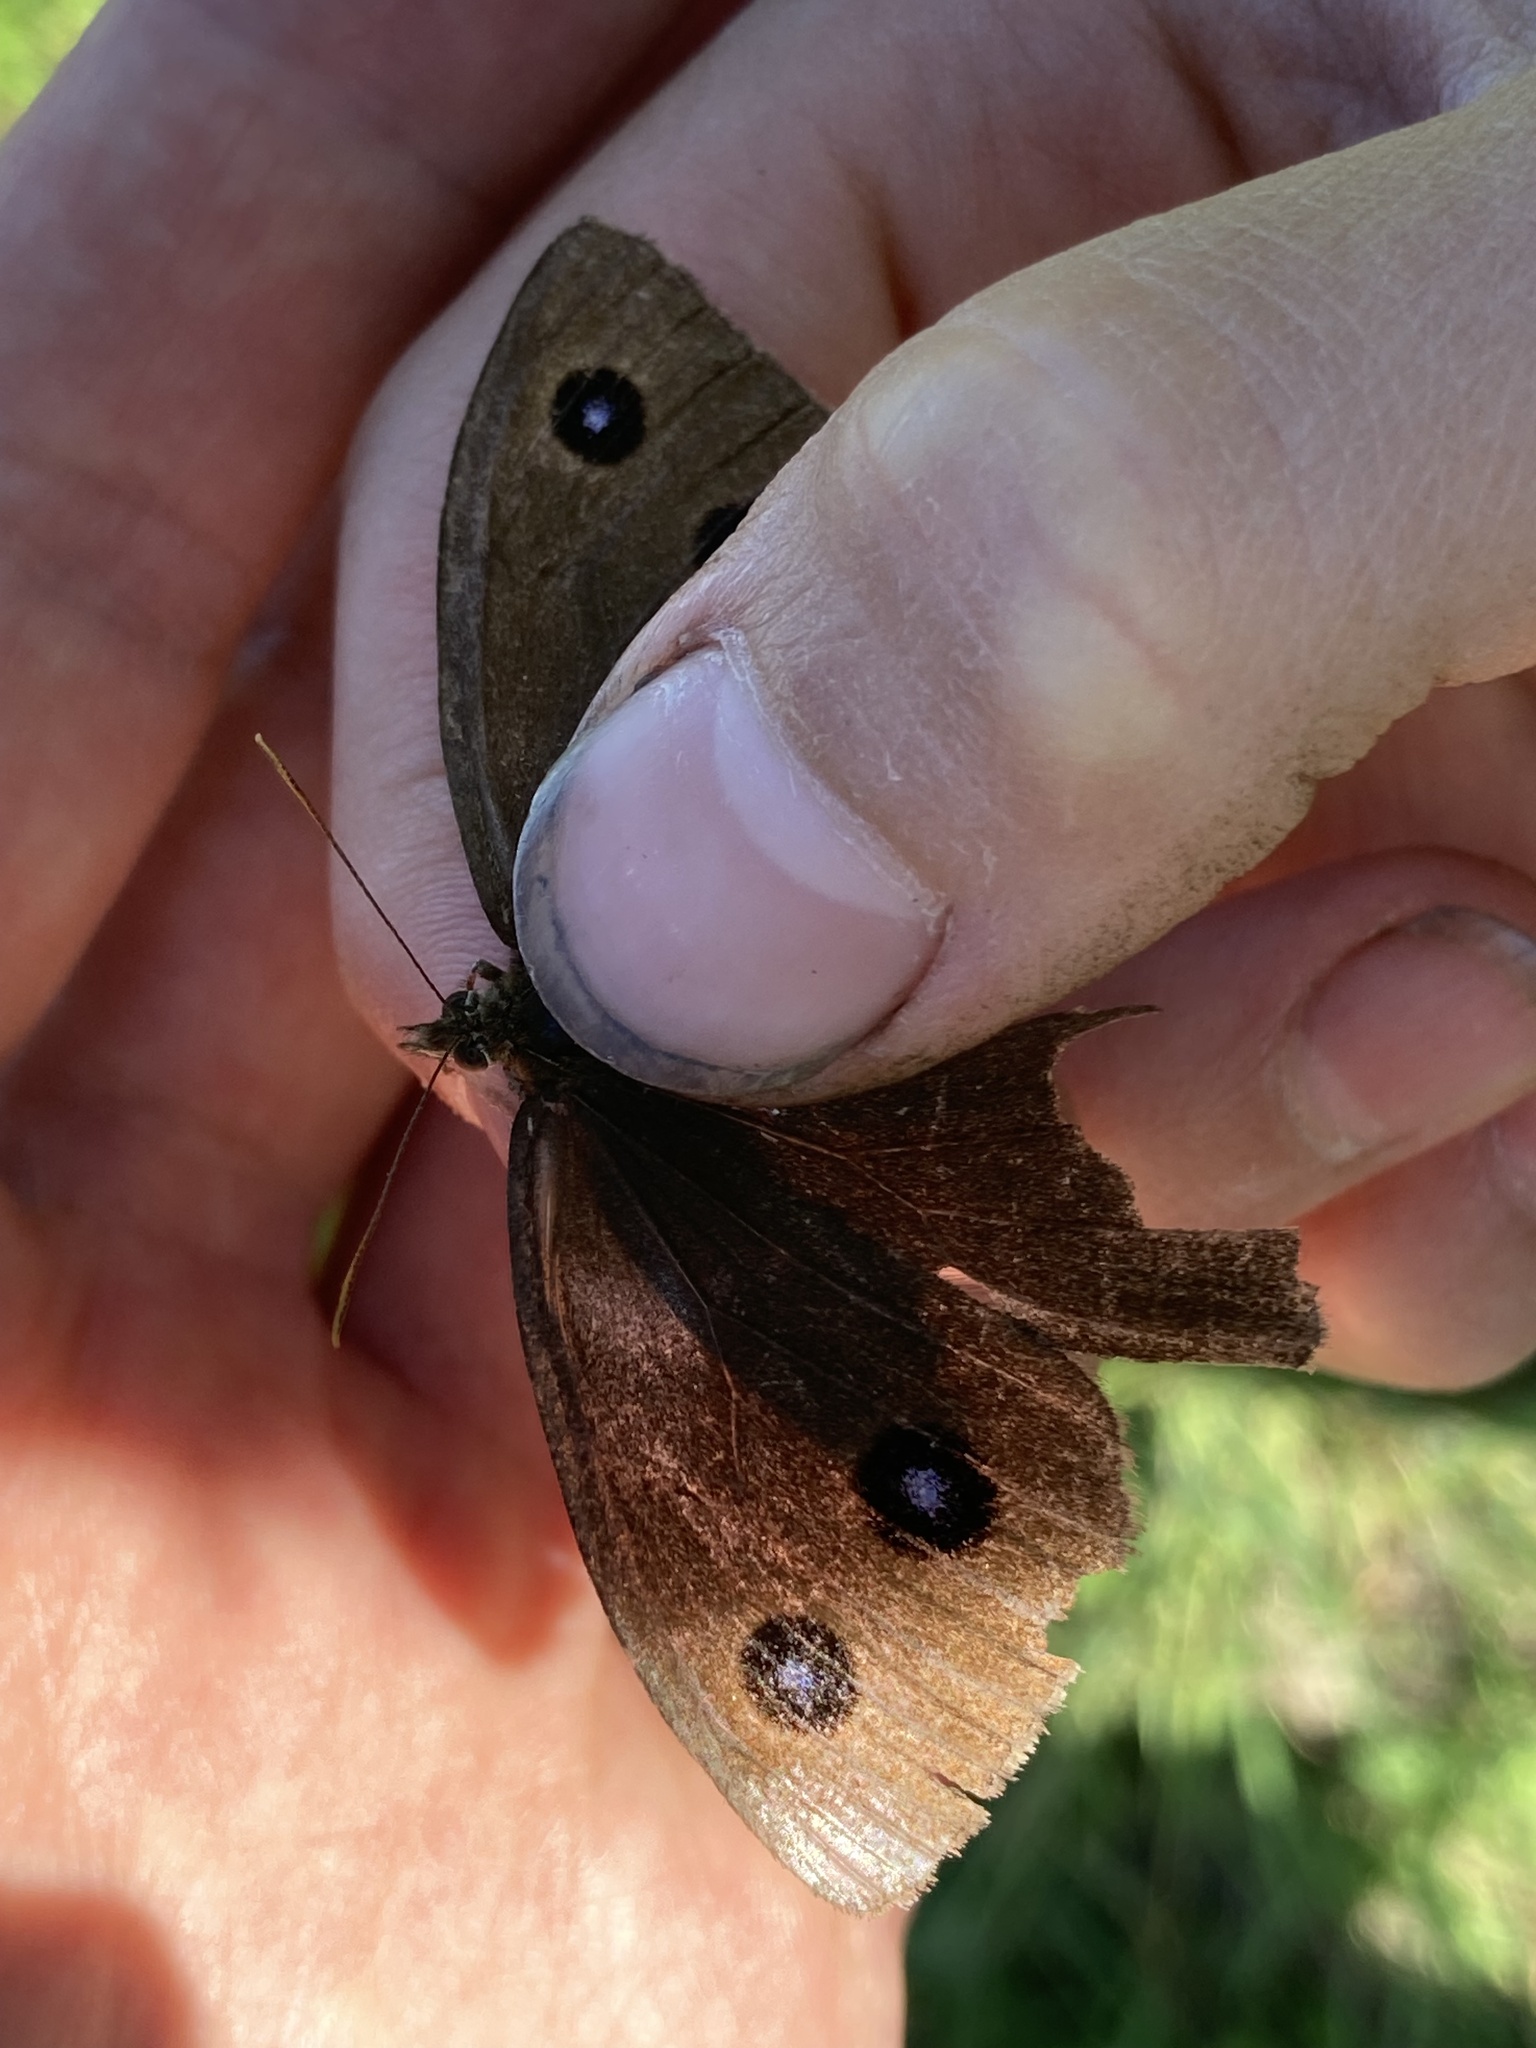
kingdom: Animalia
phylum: Arthropoda
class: Insecta
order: Lepidoptera
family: Nymphalidae
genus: Minois
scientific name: Minois dryas
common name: Dryad
